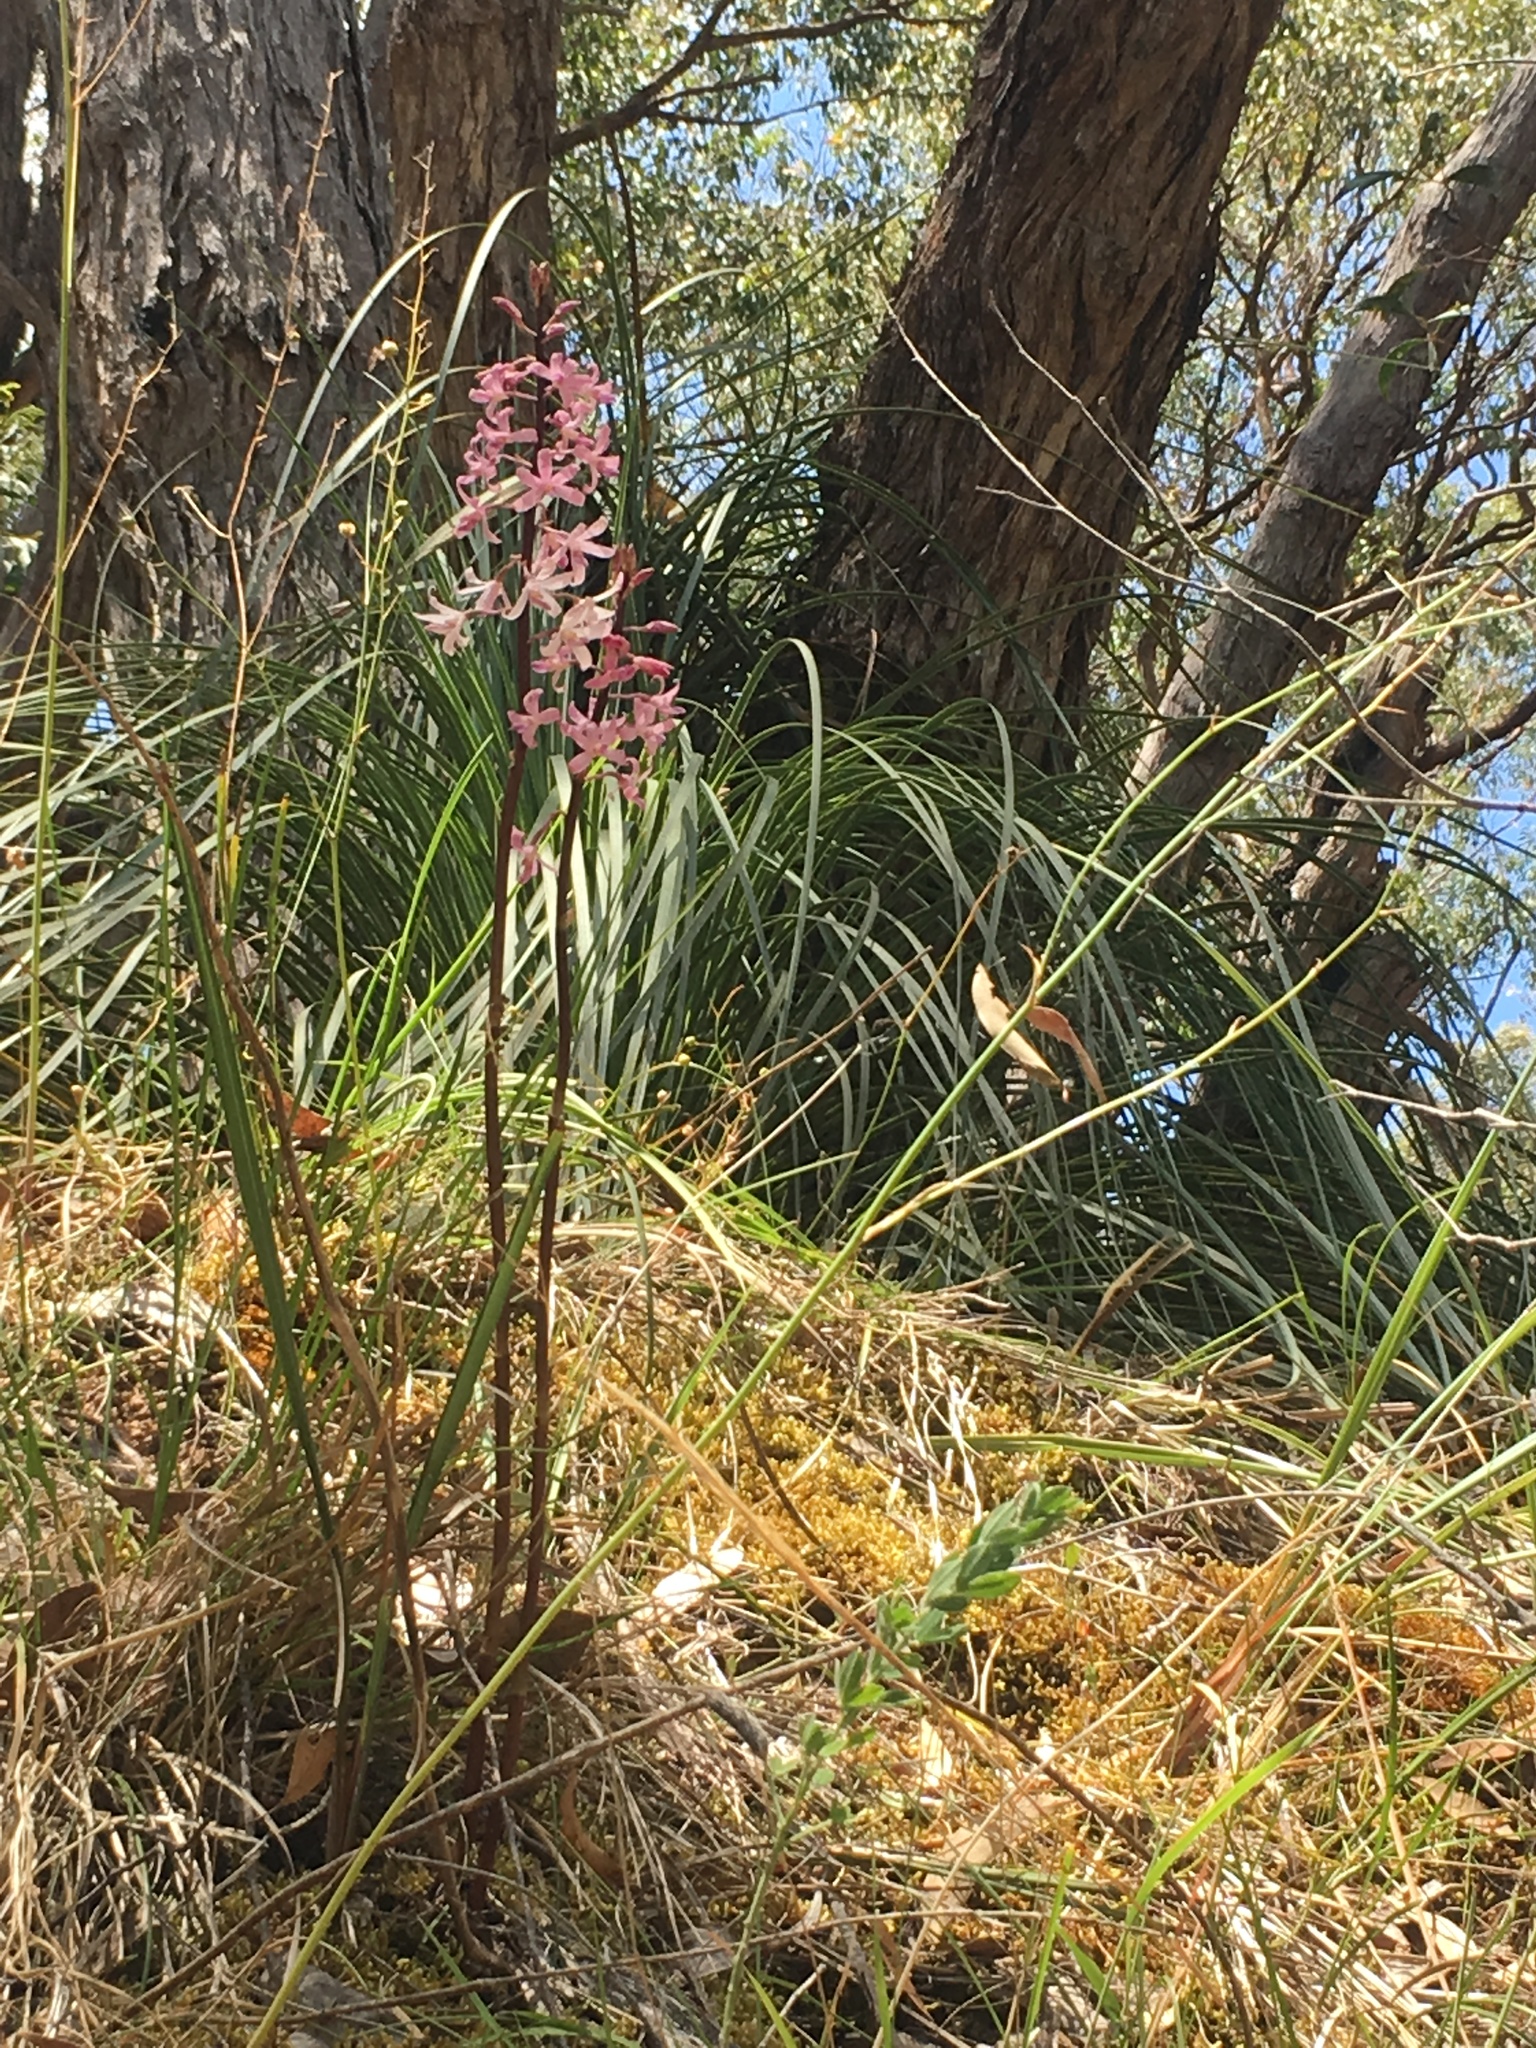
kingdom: Plantae
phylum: Tracheophyta
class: Liliopsida
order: Asparagales
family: Orchidaceae
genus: Dipodium
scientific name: Dipodium roseum
